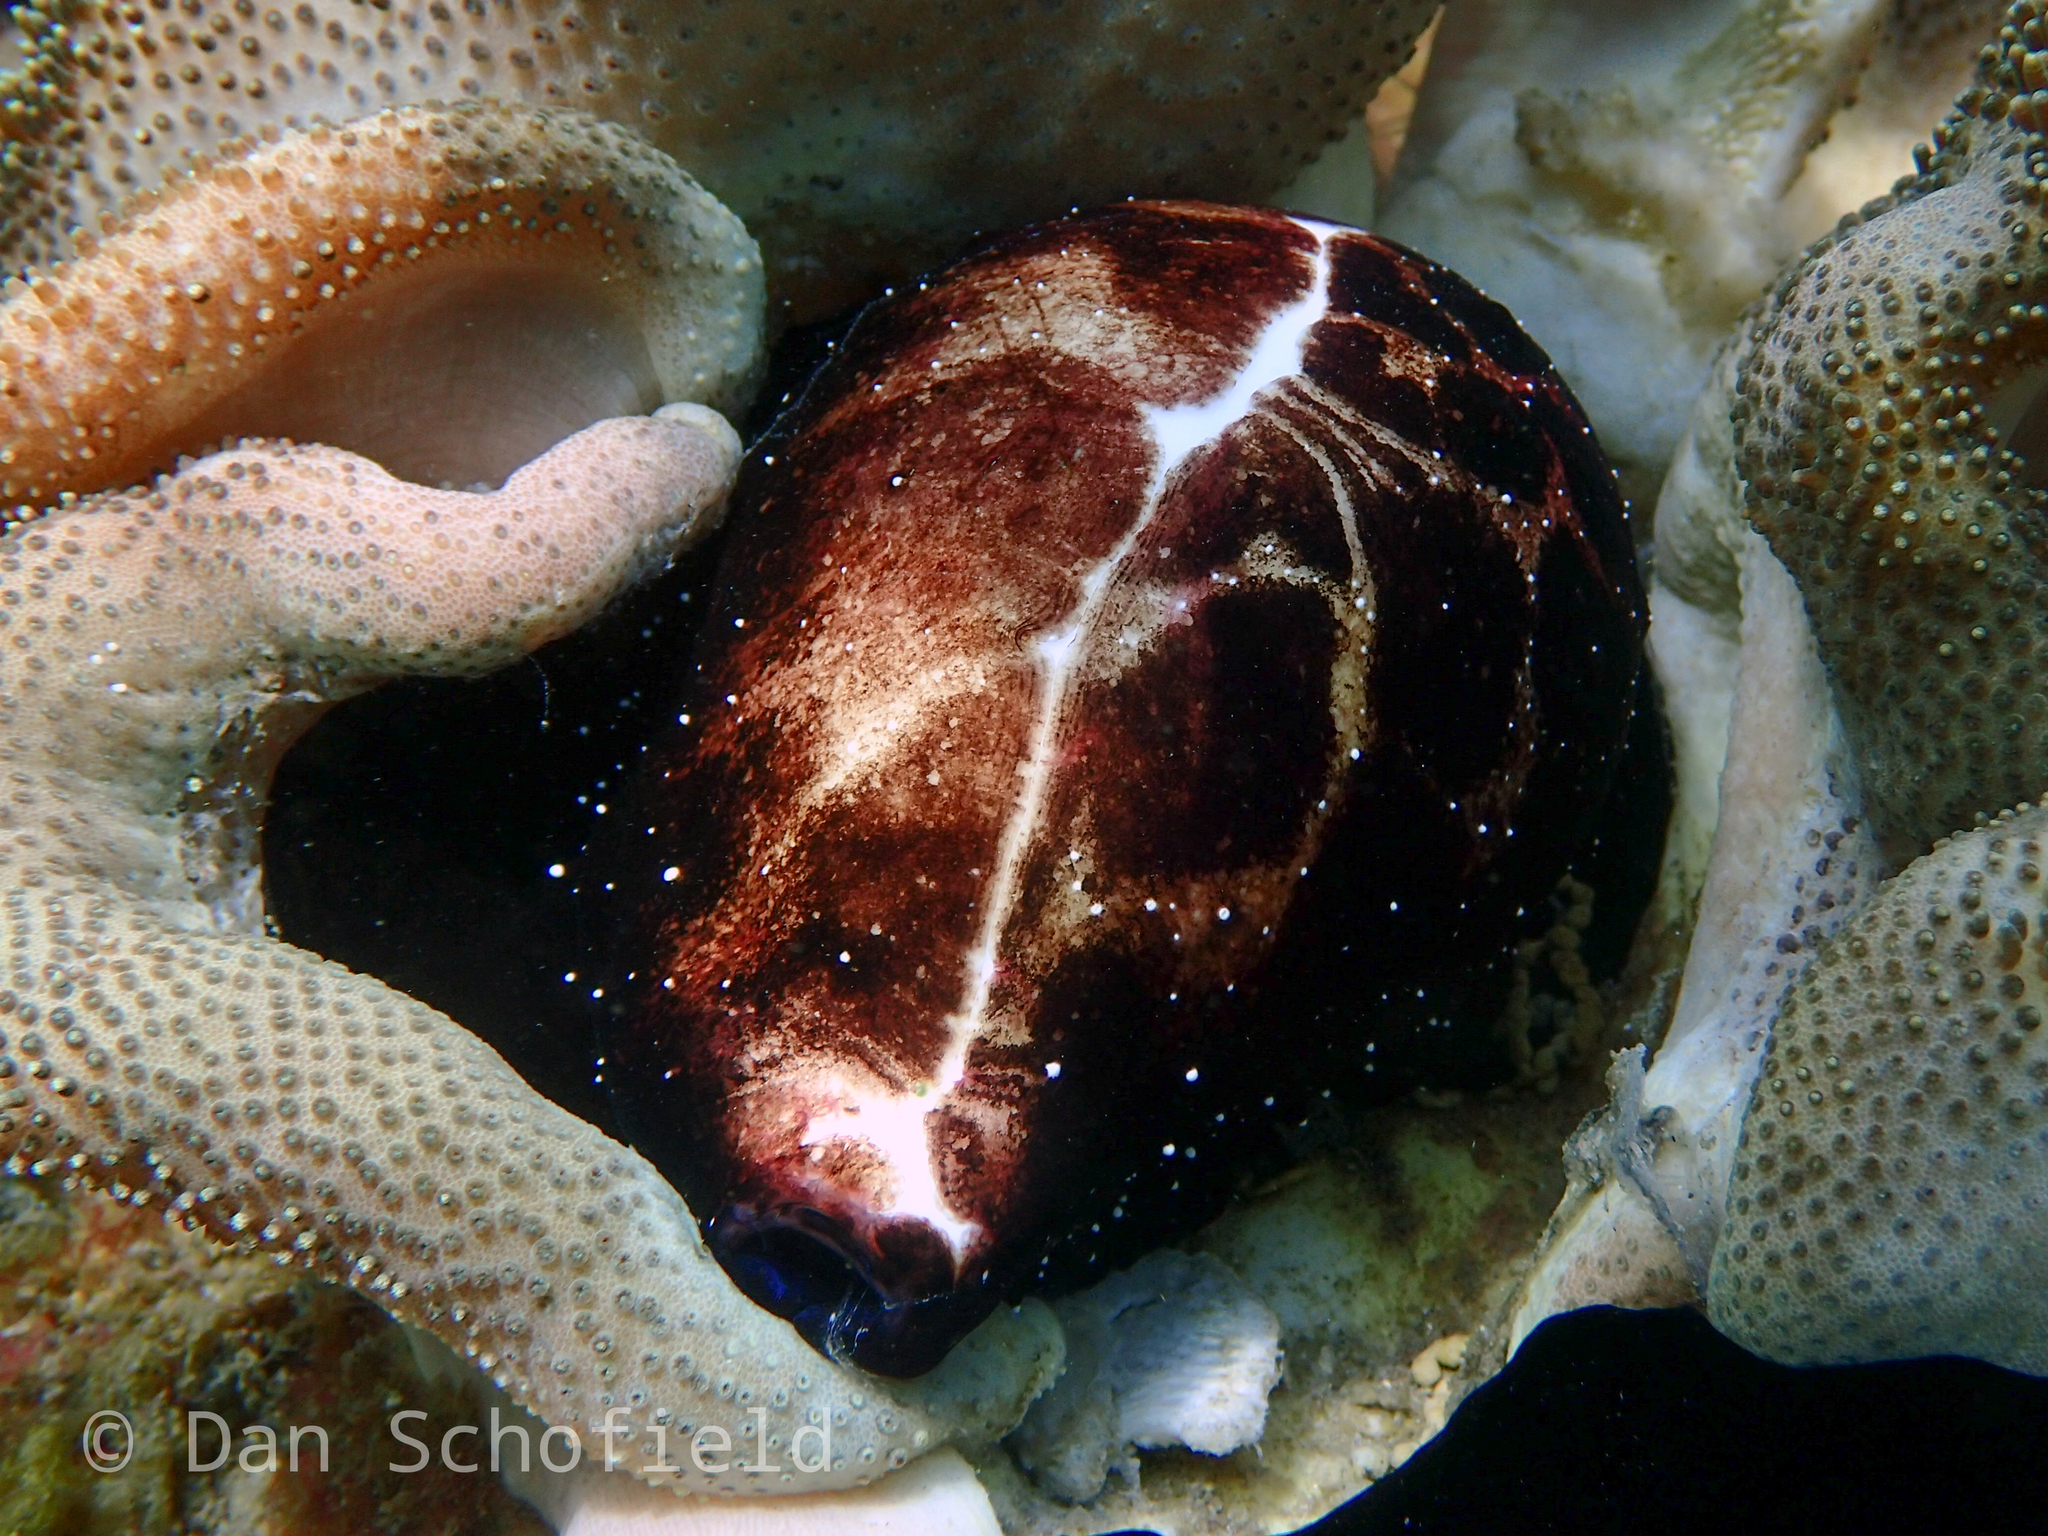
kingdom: Animalia
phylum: Mollusca
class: Gastropoda
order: Littorinimorpha
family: Ovulidae
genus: Ovula
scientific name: Ovula ovum
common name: Common egg cowrie
